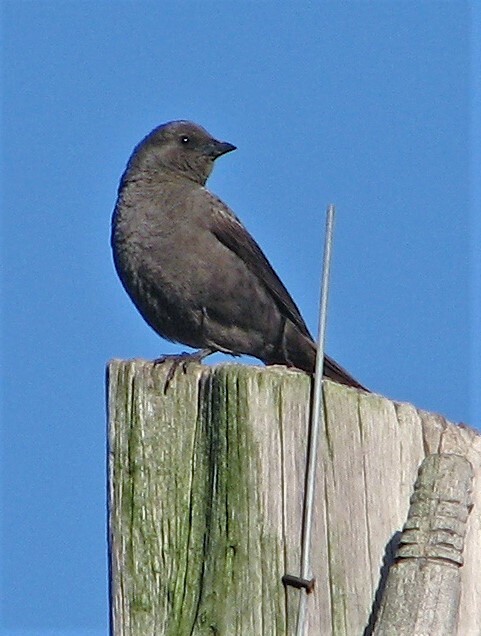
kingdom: Animalia
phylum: Chordata
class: Aves
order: Passeriformes
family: Icteridae
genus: Molothrus
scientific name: Molothrus bonariensis
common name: Shiny cowbird
